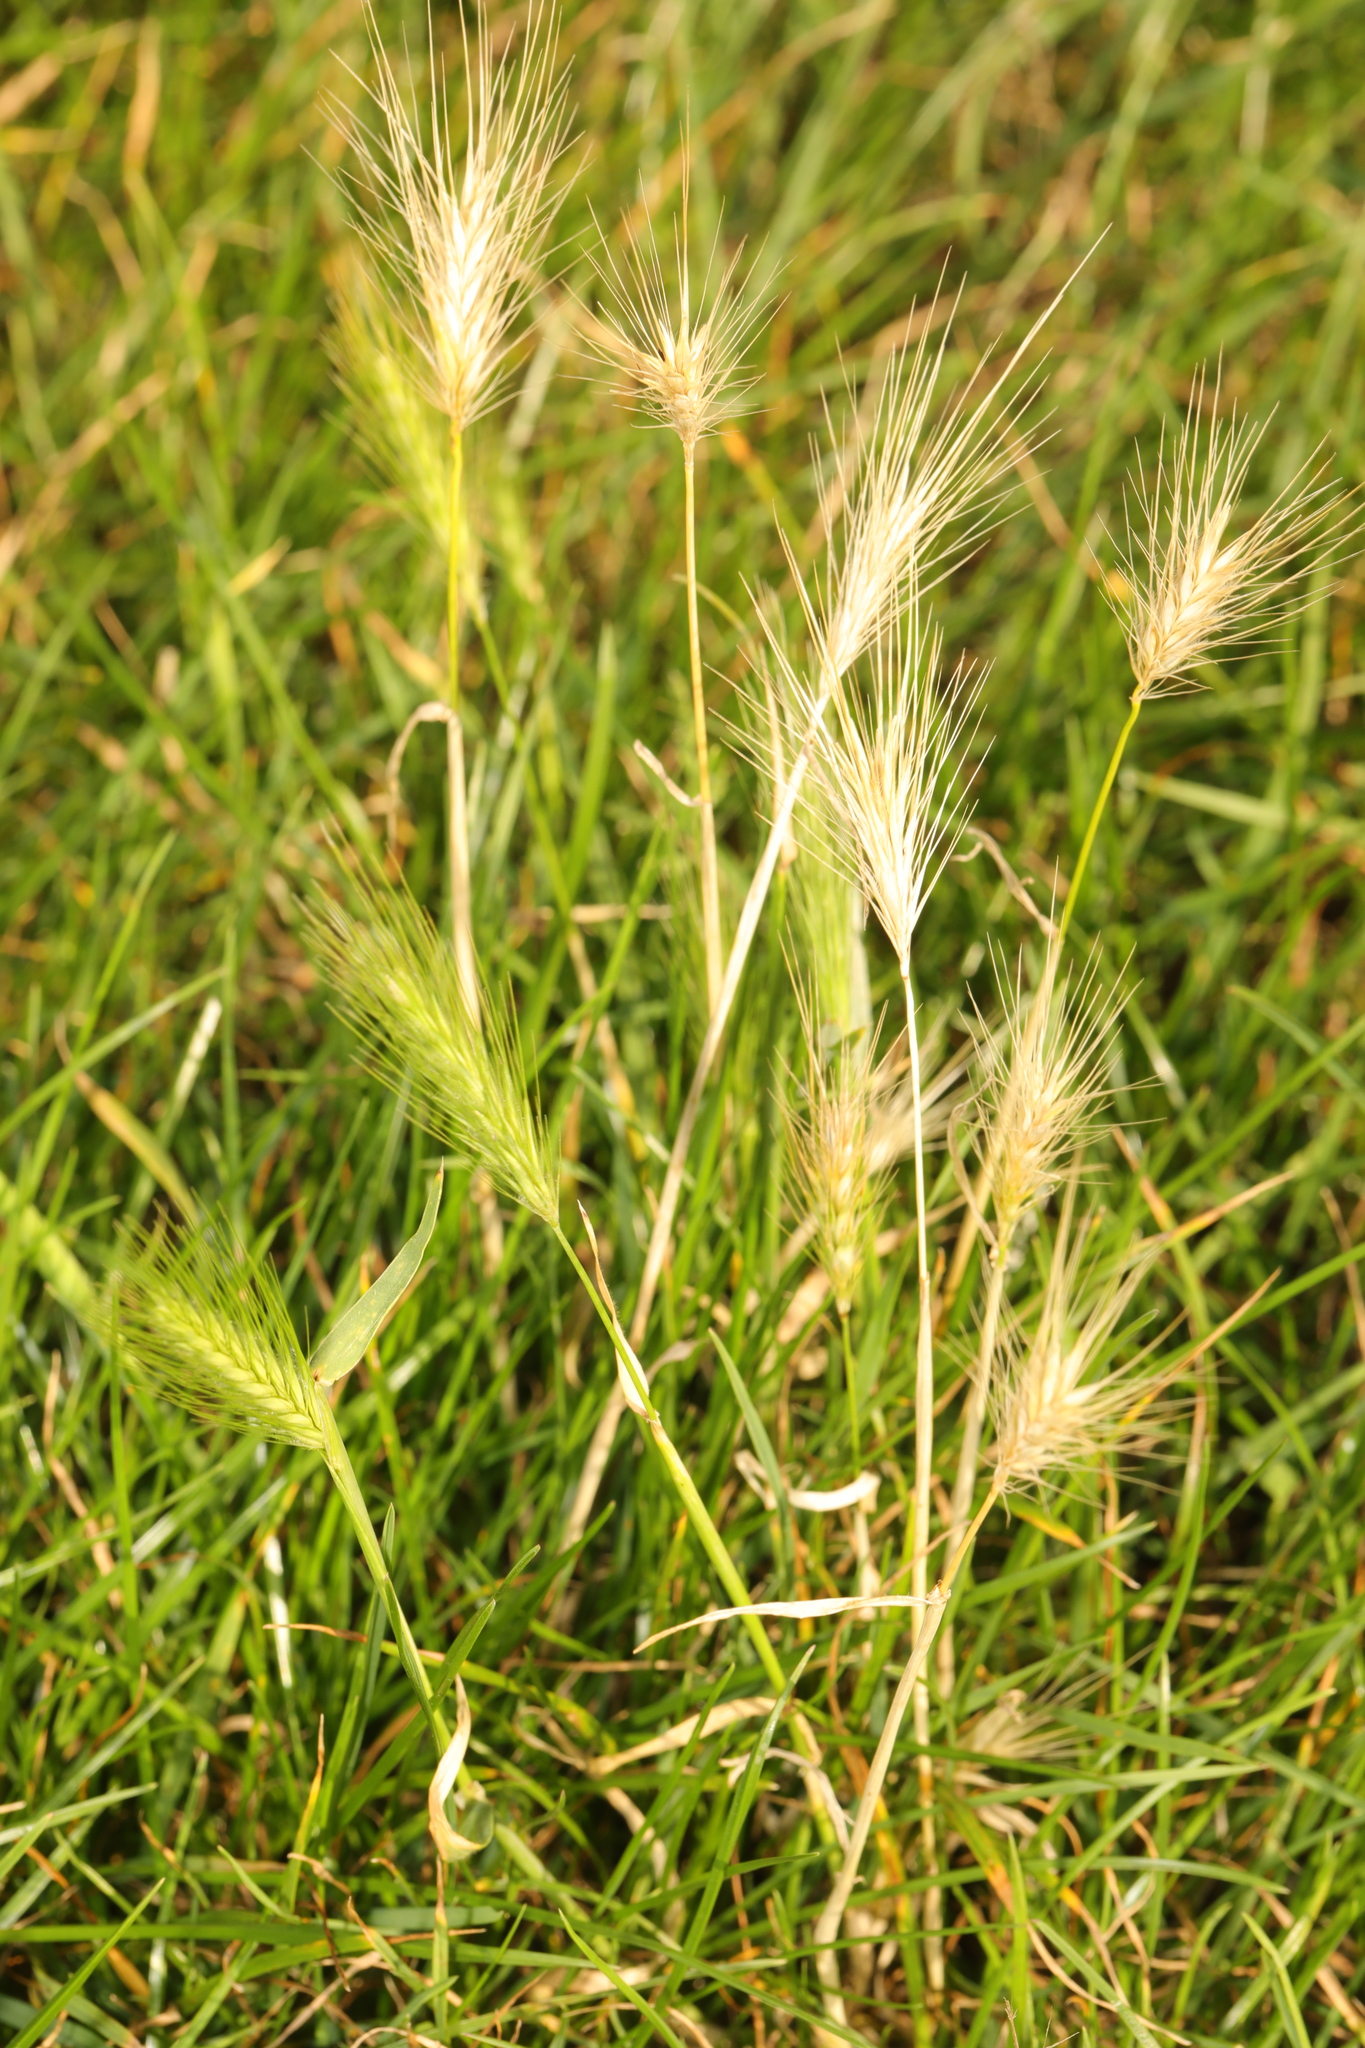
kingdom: Plantae
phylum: Tracheophyta
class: Liliopsida
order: Poales
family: Poaceae
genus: Hordeum
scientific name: Hordeum murinum
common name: Wall barley
